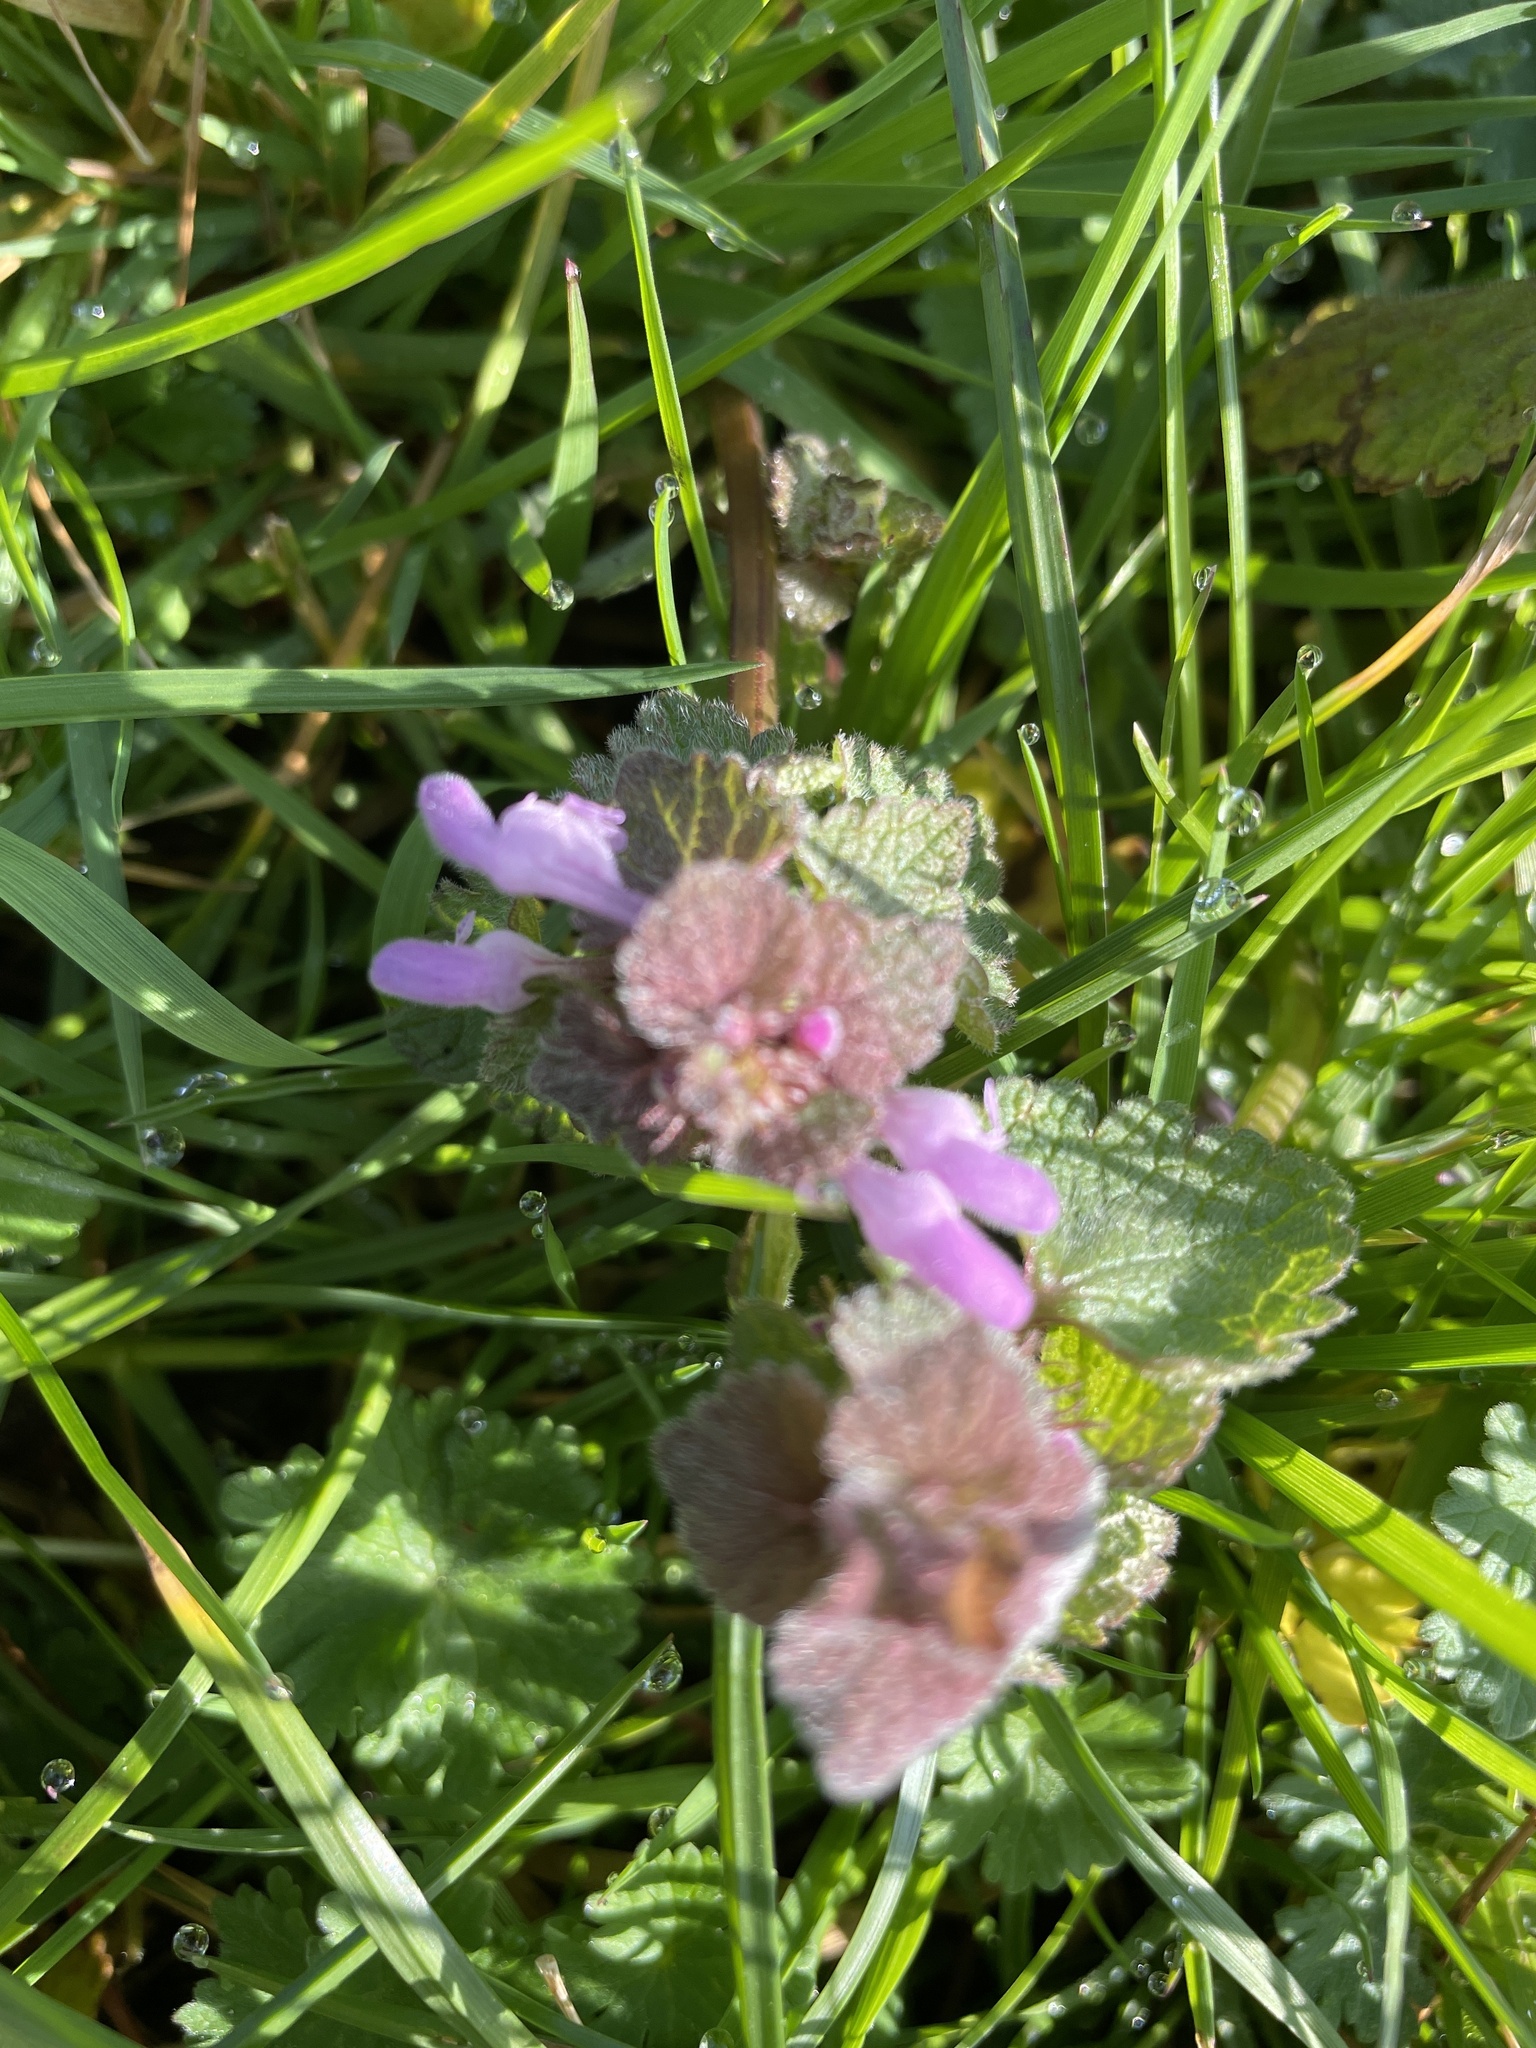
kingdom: Plantae
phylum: Tracheophyta
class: Magnoliopsida
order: Lamiales
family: Lamiaceae
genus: Lamium
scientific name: Lamium purpureum
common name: Red dead-nettle
